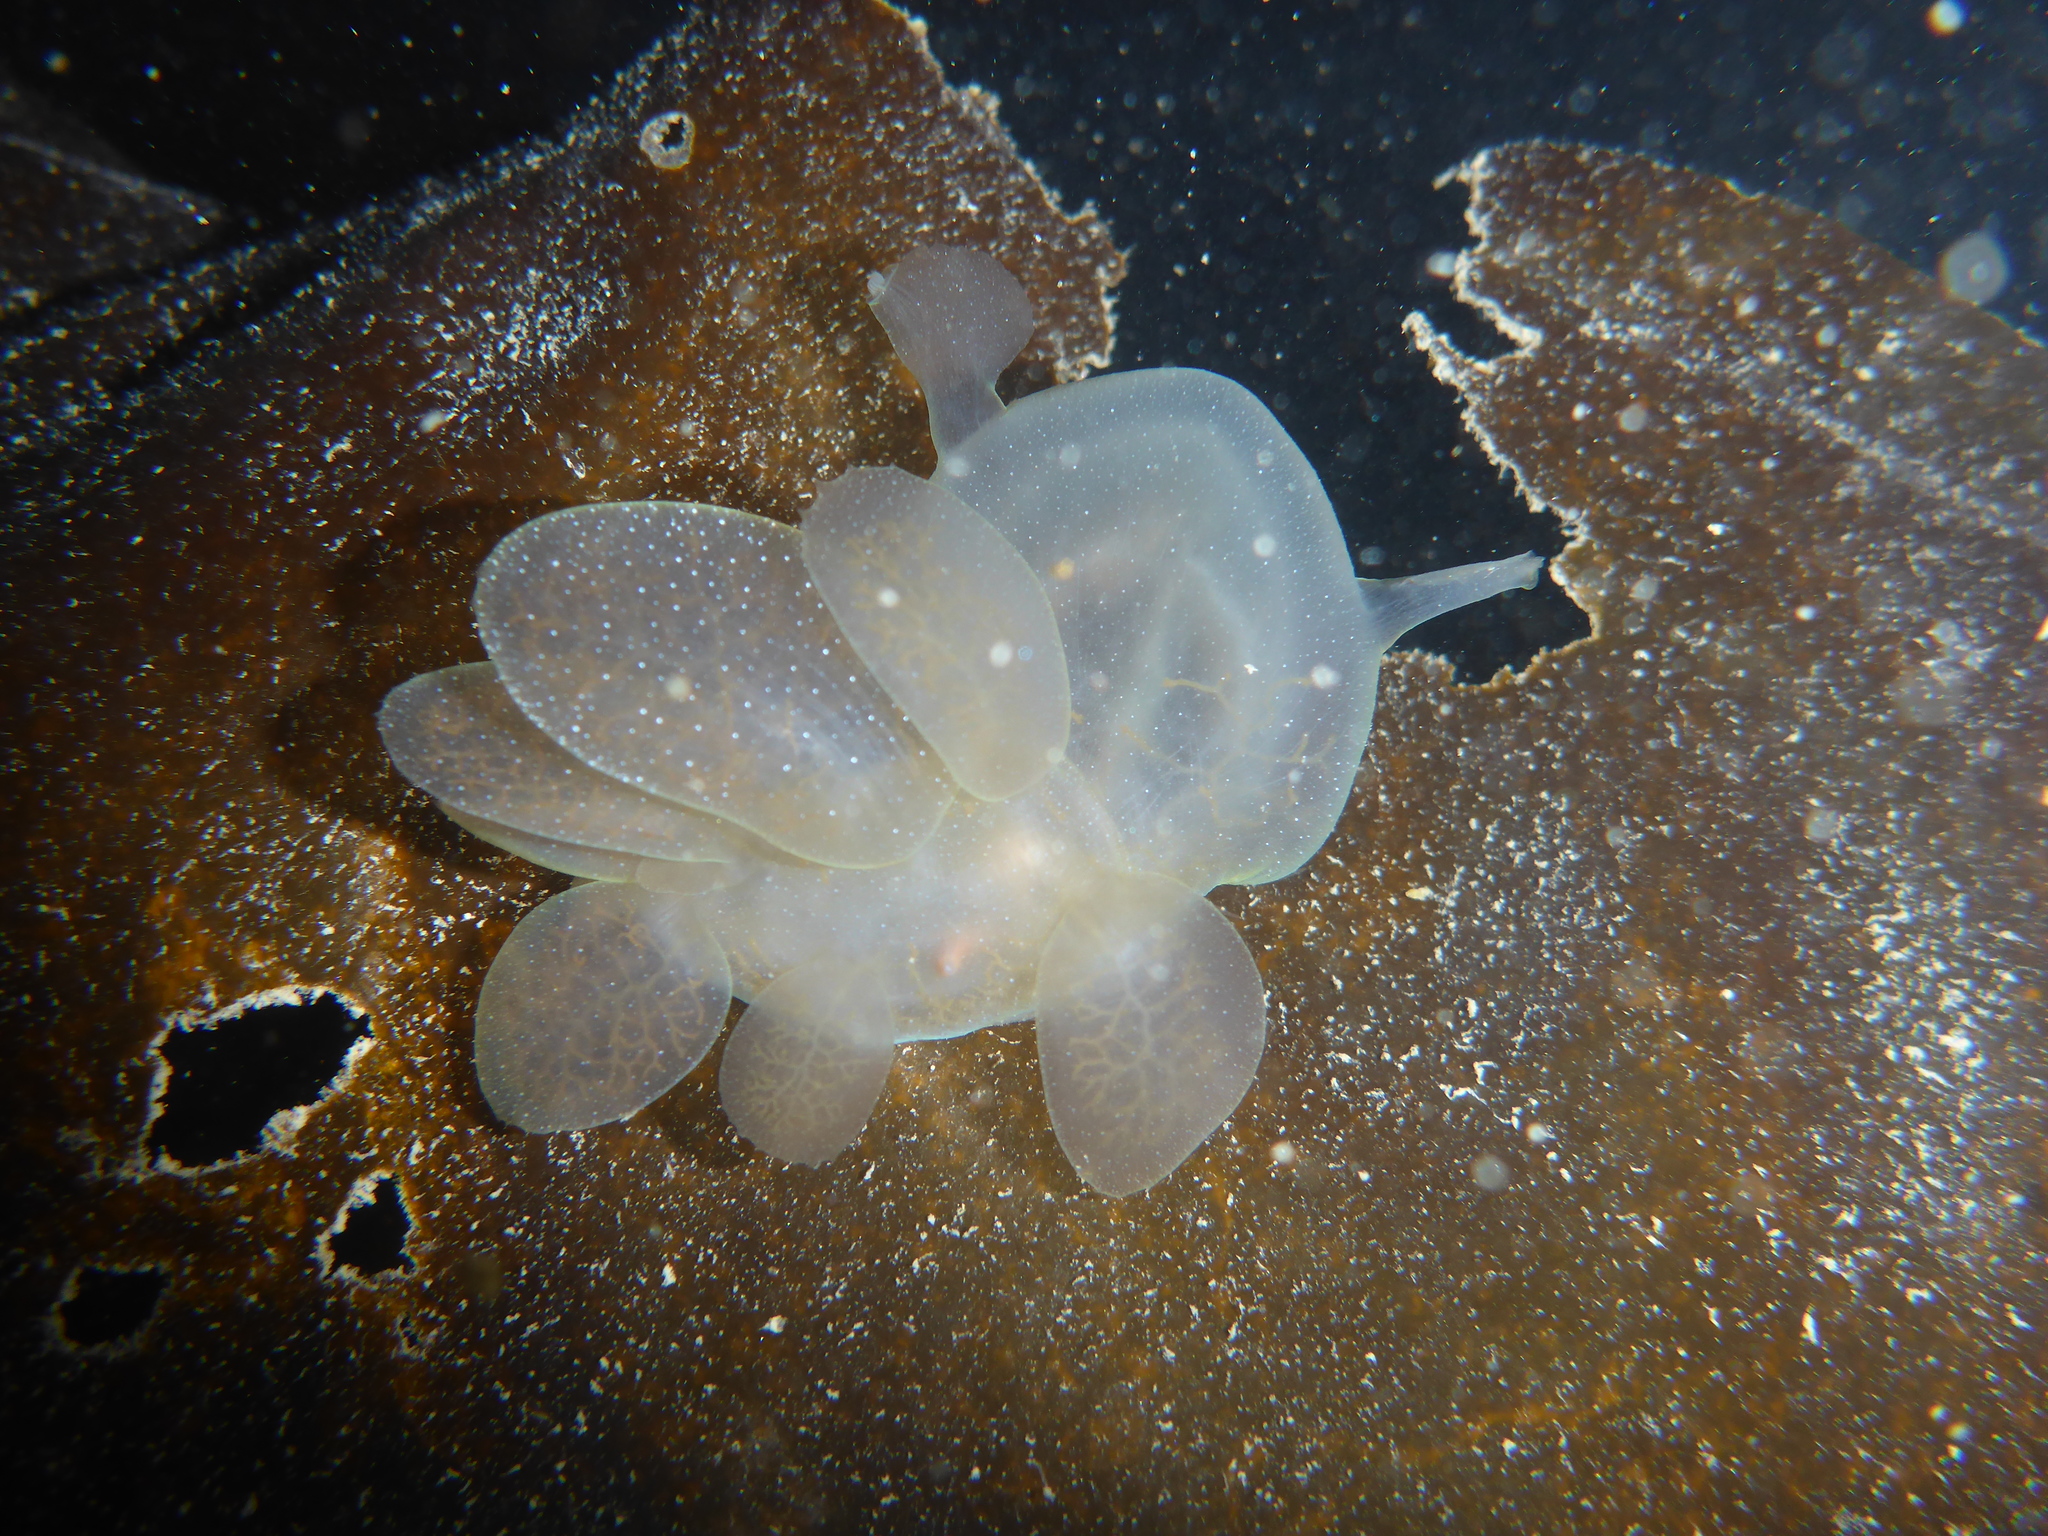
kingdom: Animalia
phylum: Mollusca
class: Gastropoda
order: Nudibranchia
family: Tethydidae
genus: Melibe
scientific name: Melibe leonina
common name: Lion nudibranch
